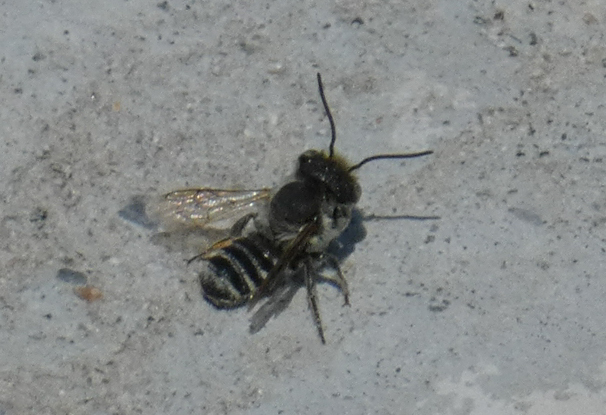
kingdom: Animalia
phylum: Arthropoda
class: Insecta
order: Hymenoptera
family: Megachilidae
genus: Megachile
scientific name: Megachile rotundata
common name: Alfalfa leafcutting bee
